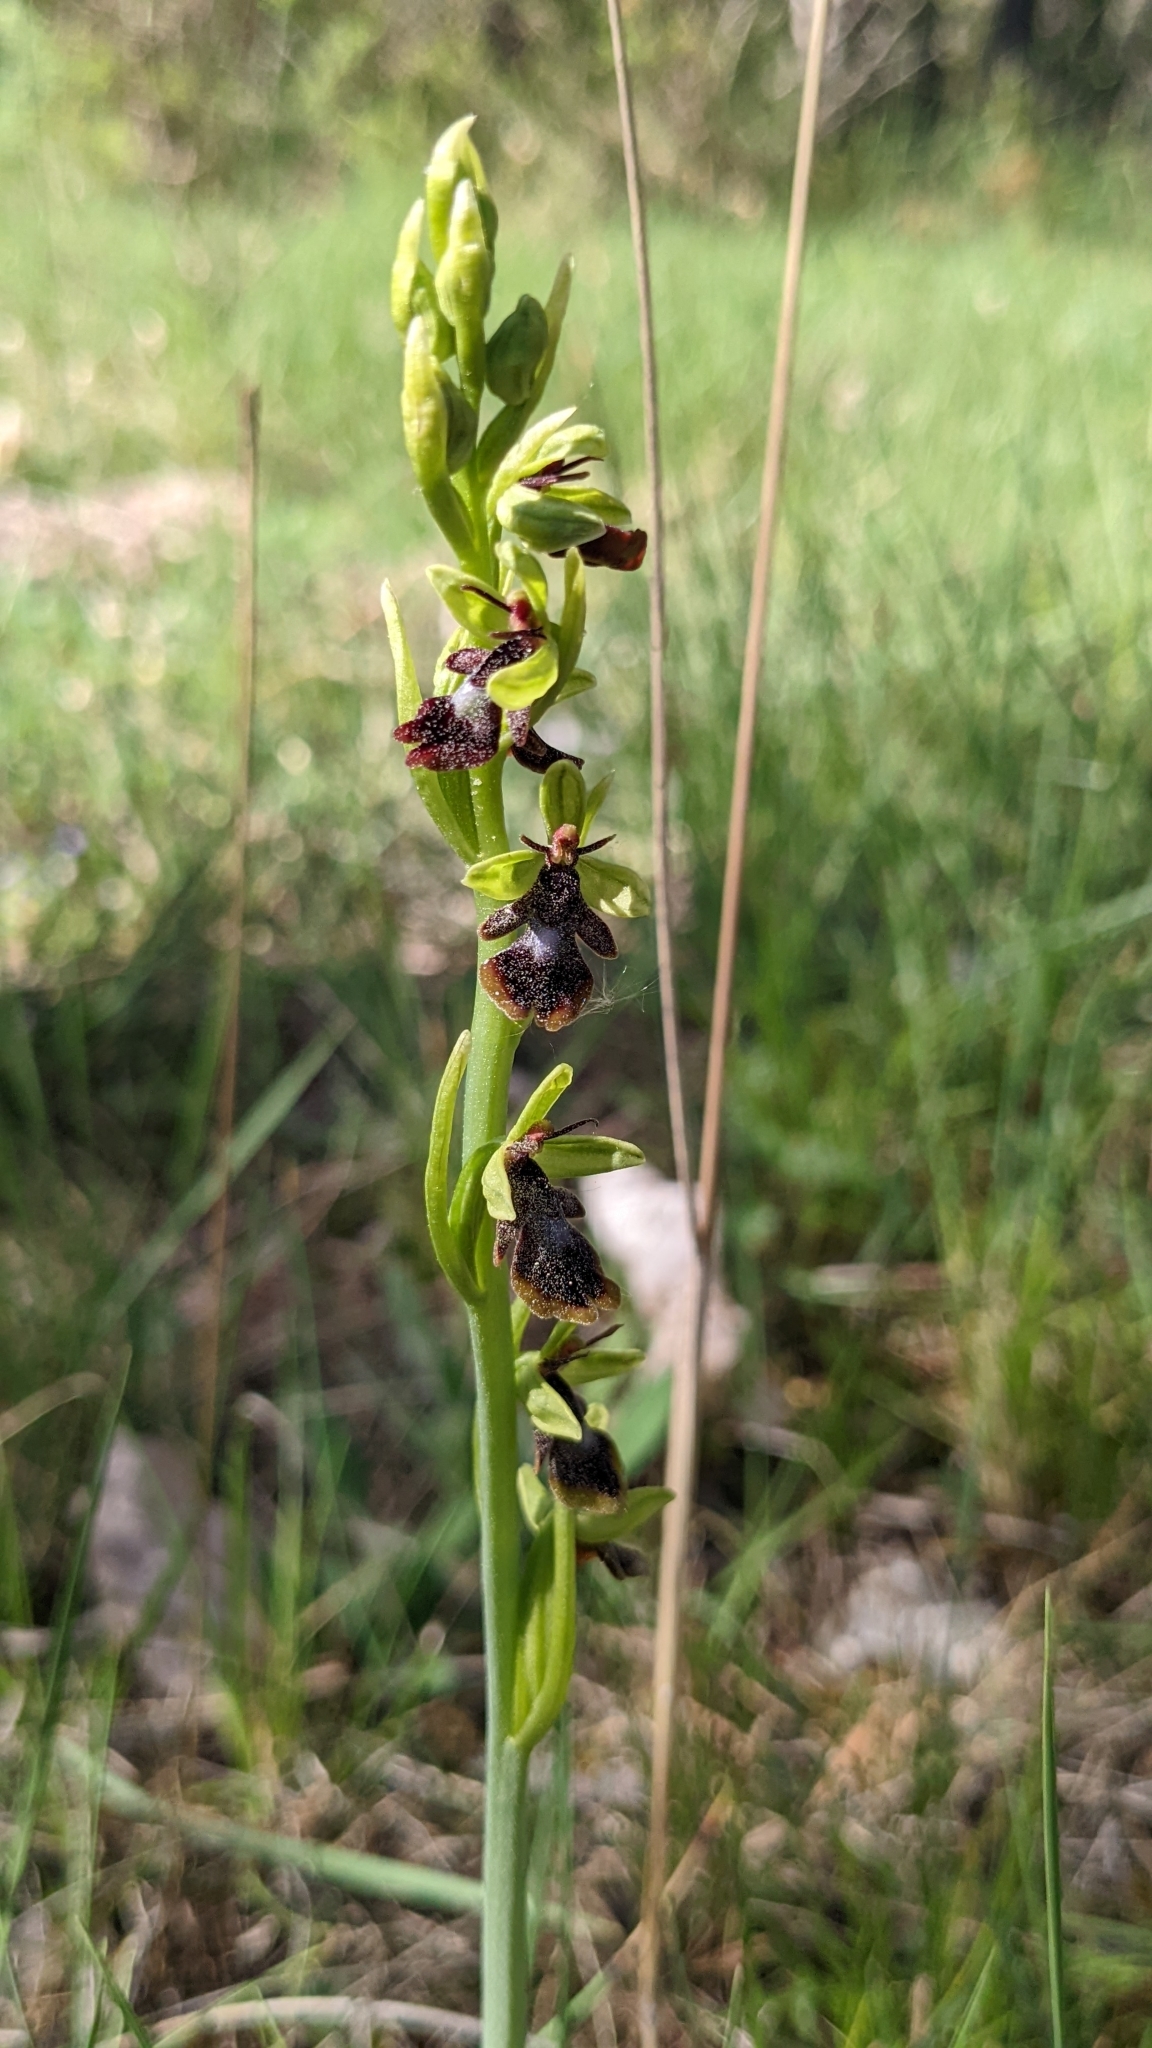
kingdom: Plantae
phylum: Tracheophyta
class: Liliopsida
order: Asparagales
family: Orchidaceae
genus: Ophrys
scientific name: Ophrys insectifera
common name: Fly orchid
